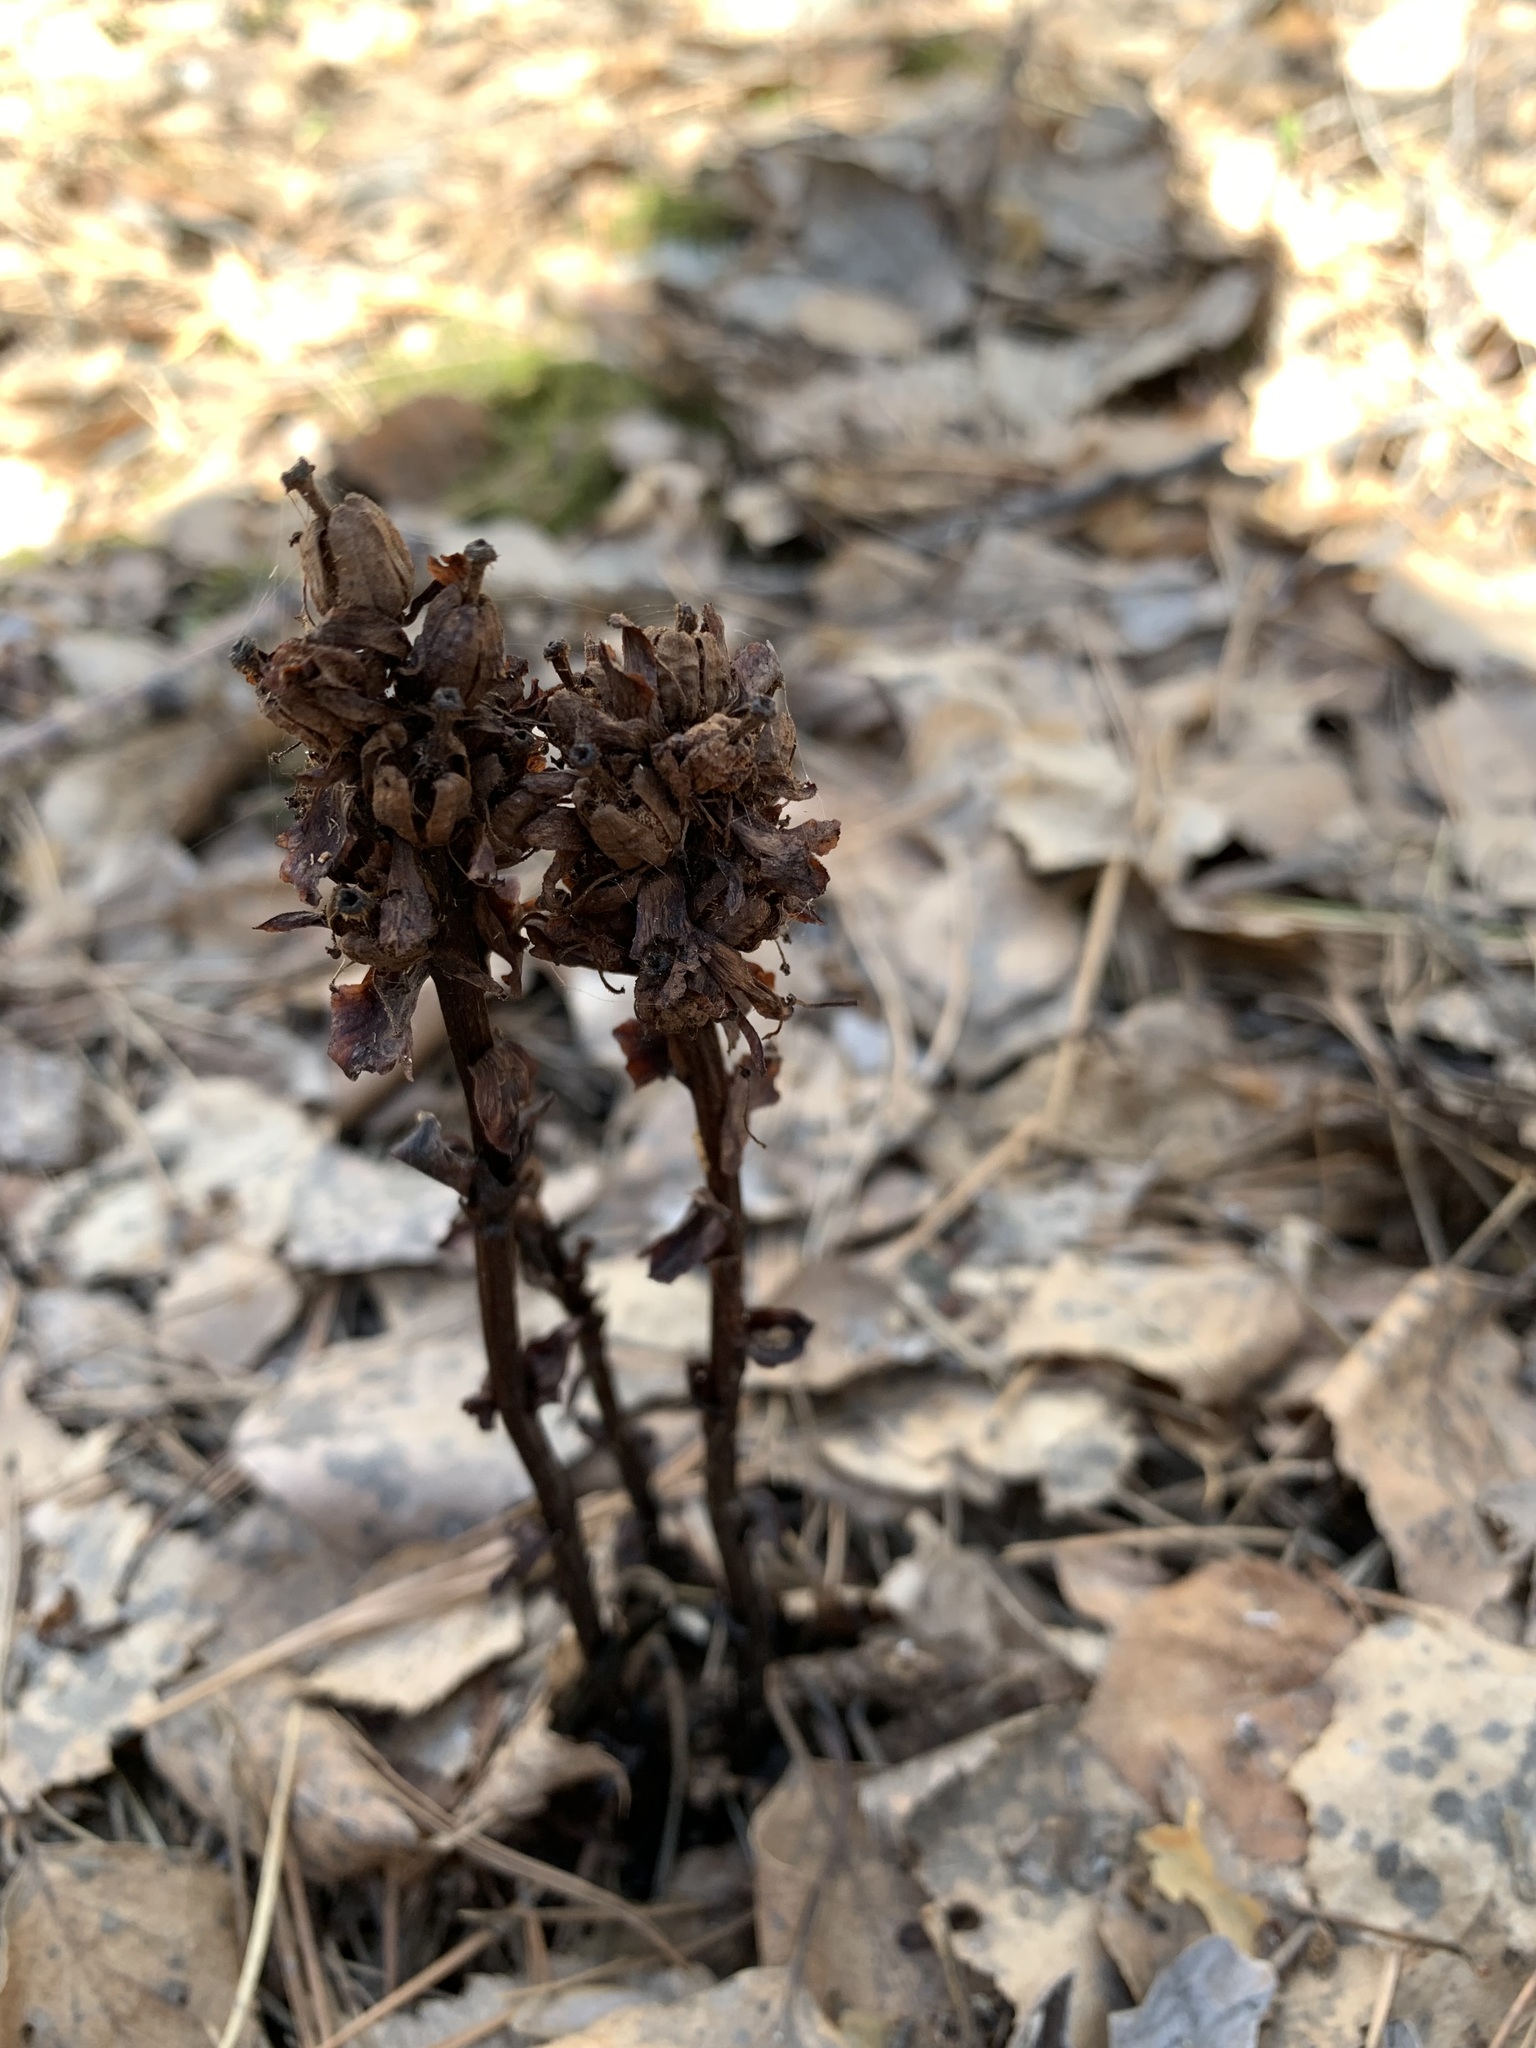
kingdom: Plantae
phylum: Tracheophyta
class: Magnoliopsida
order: Ericales
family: Ericaceae
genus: Hypopitys
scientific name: Hypopitys monotropa
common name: Yellow bird's-nest
